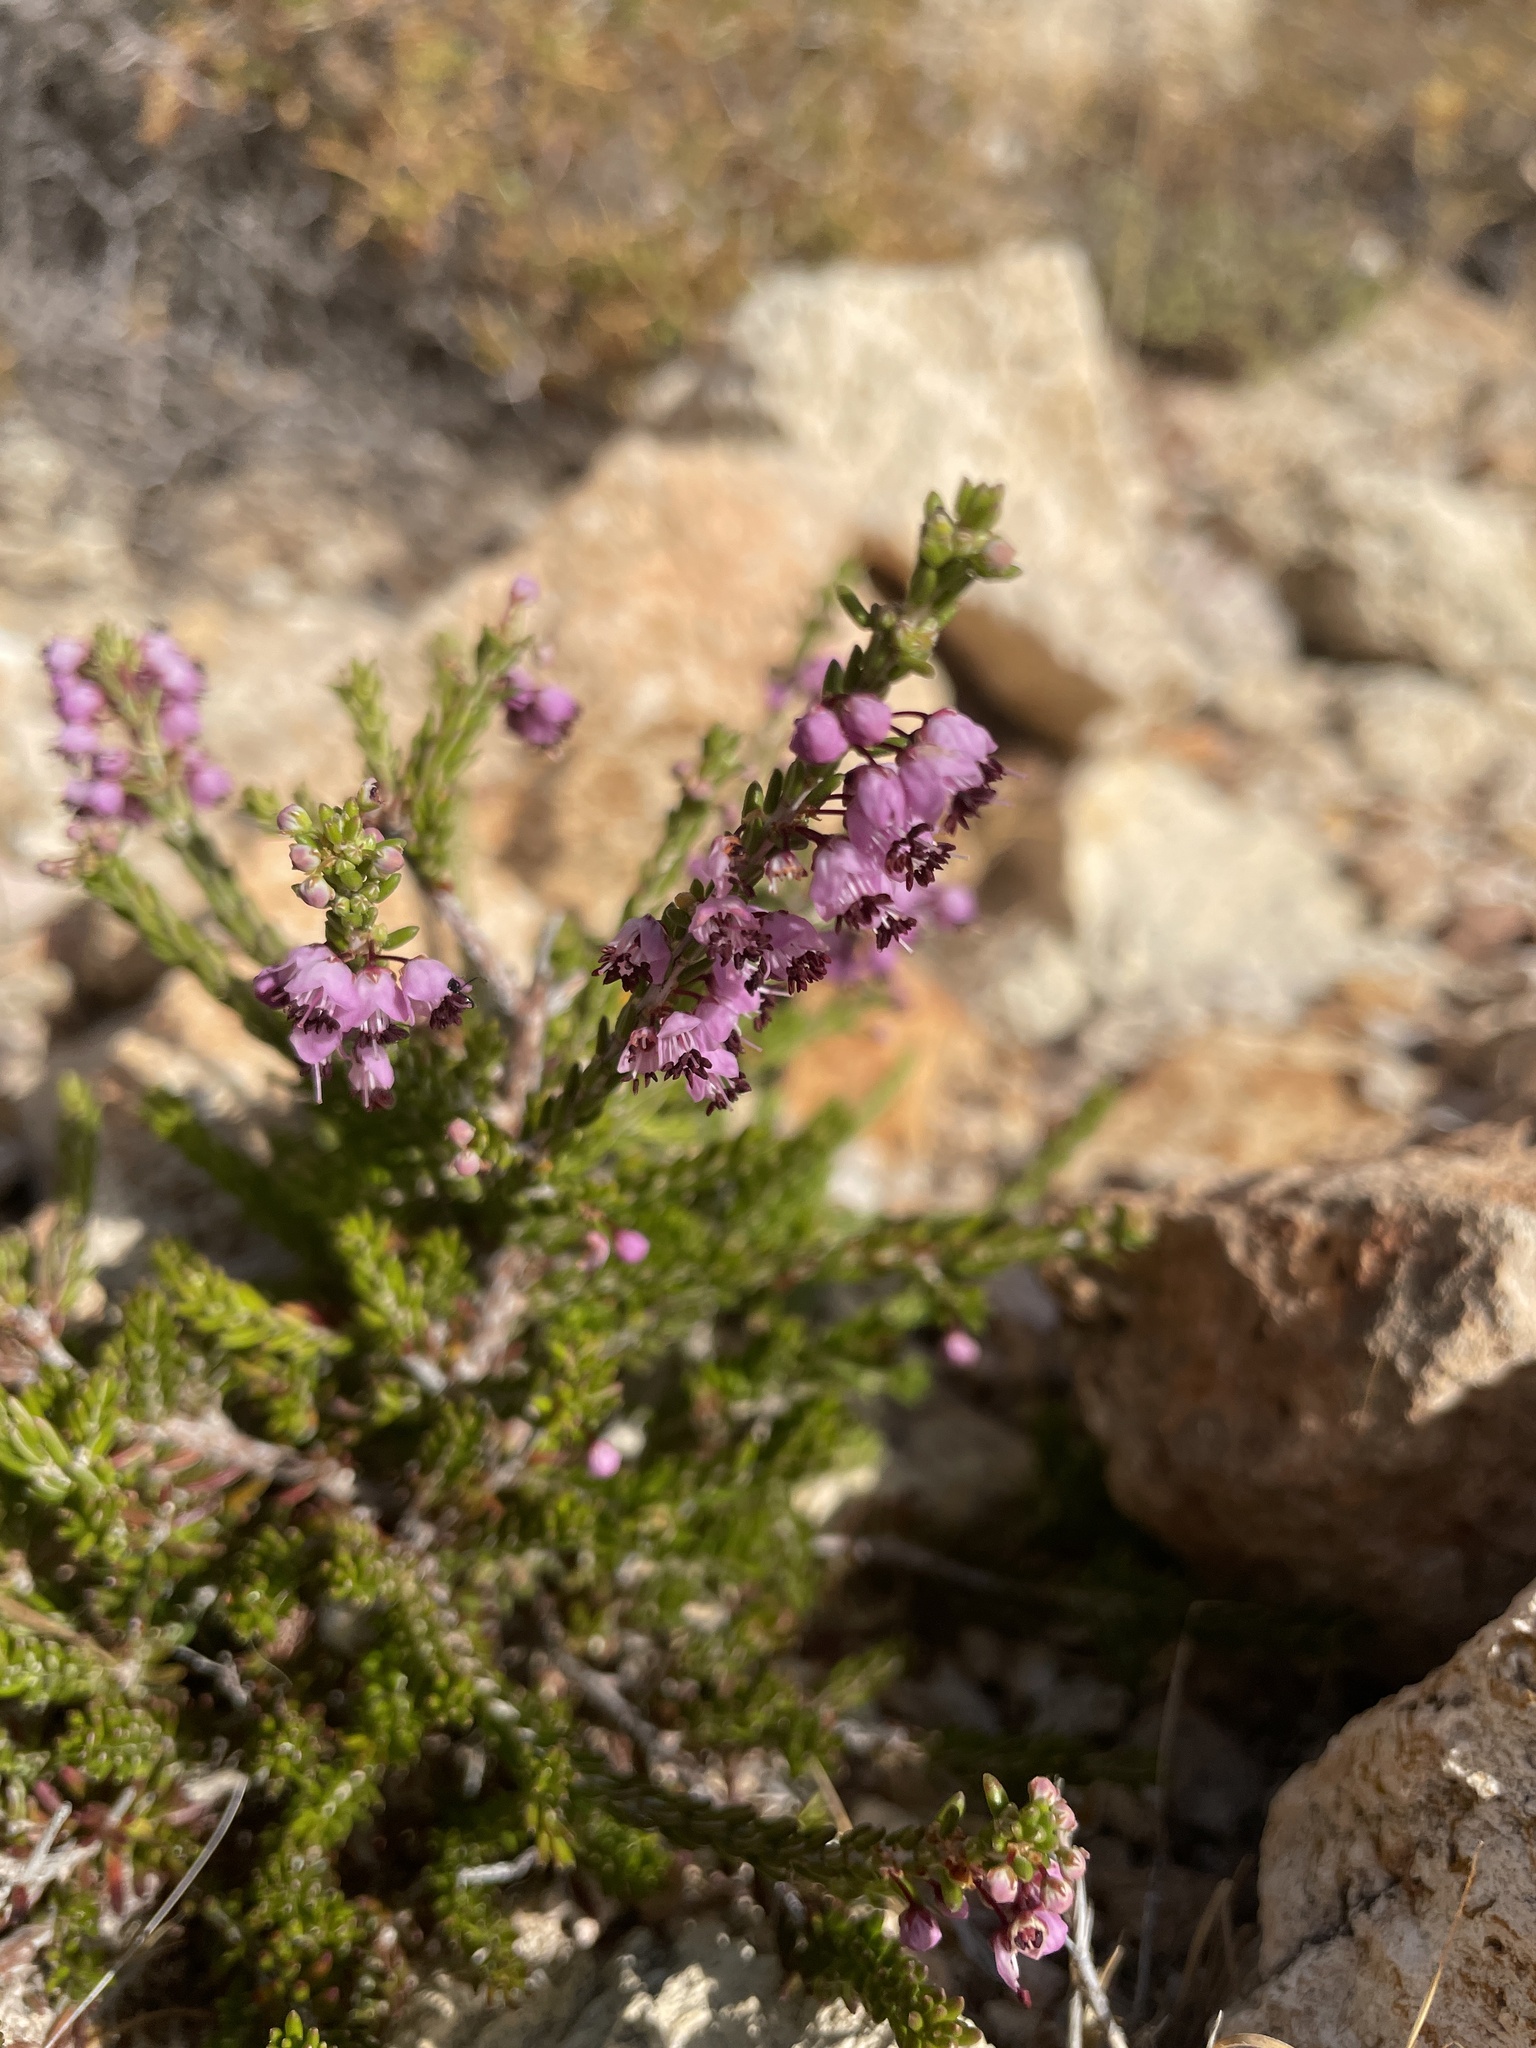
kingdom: Plantae
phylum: Tracheophyta
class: Magnoliopsida
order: Ericales
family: Ericaceae
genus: Erica
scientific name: Erica manipuliflora
